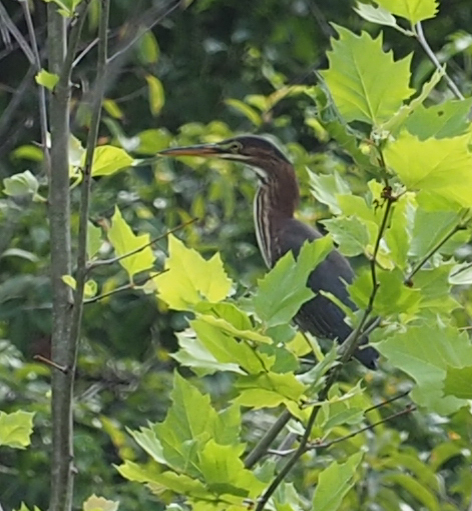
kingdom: Animalia
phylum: Chordata
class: Aves
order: Pelecaniformes
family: Ardeidae
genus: Butorides
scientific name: Butorides virescens
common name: Green heron
